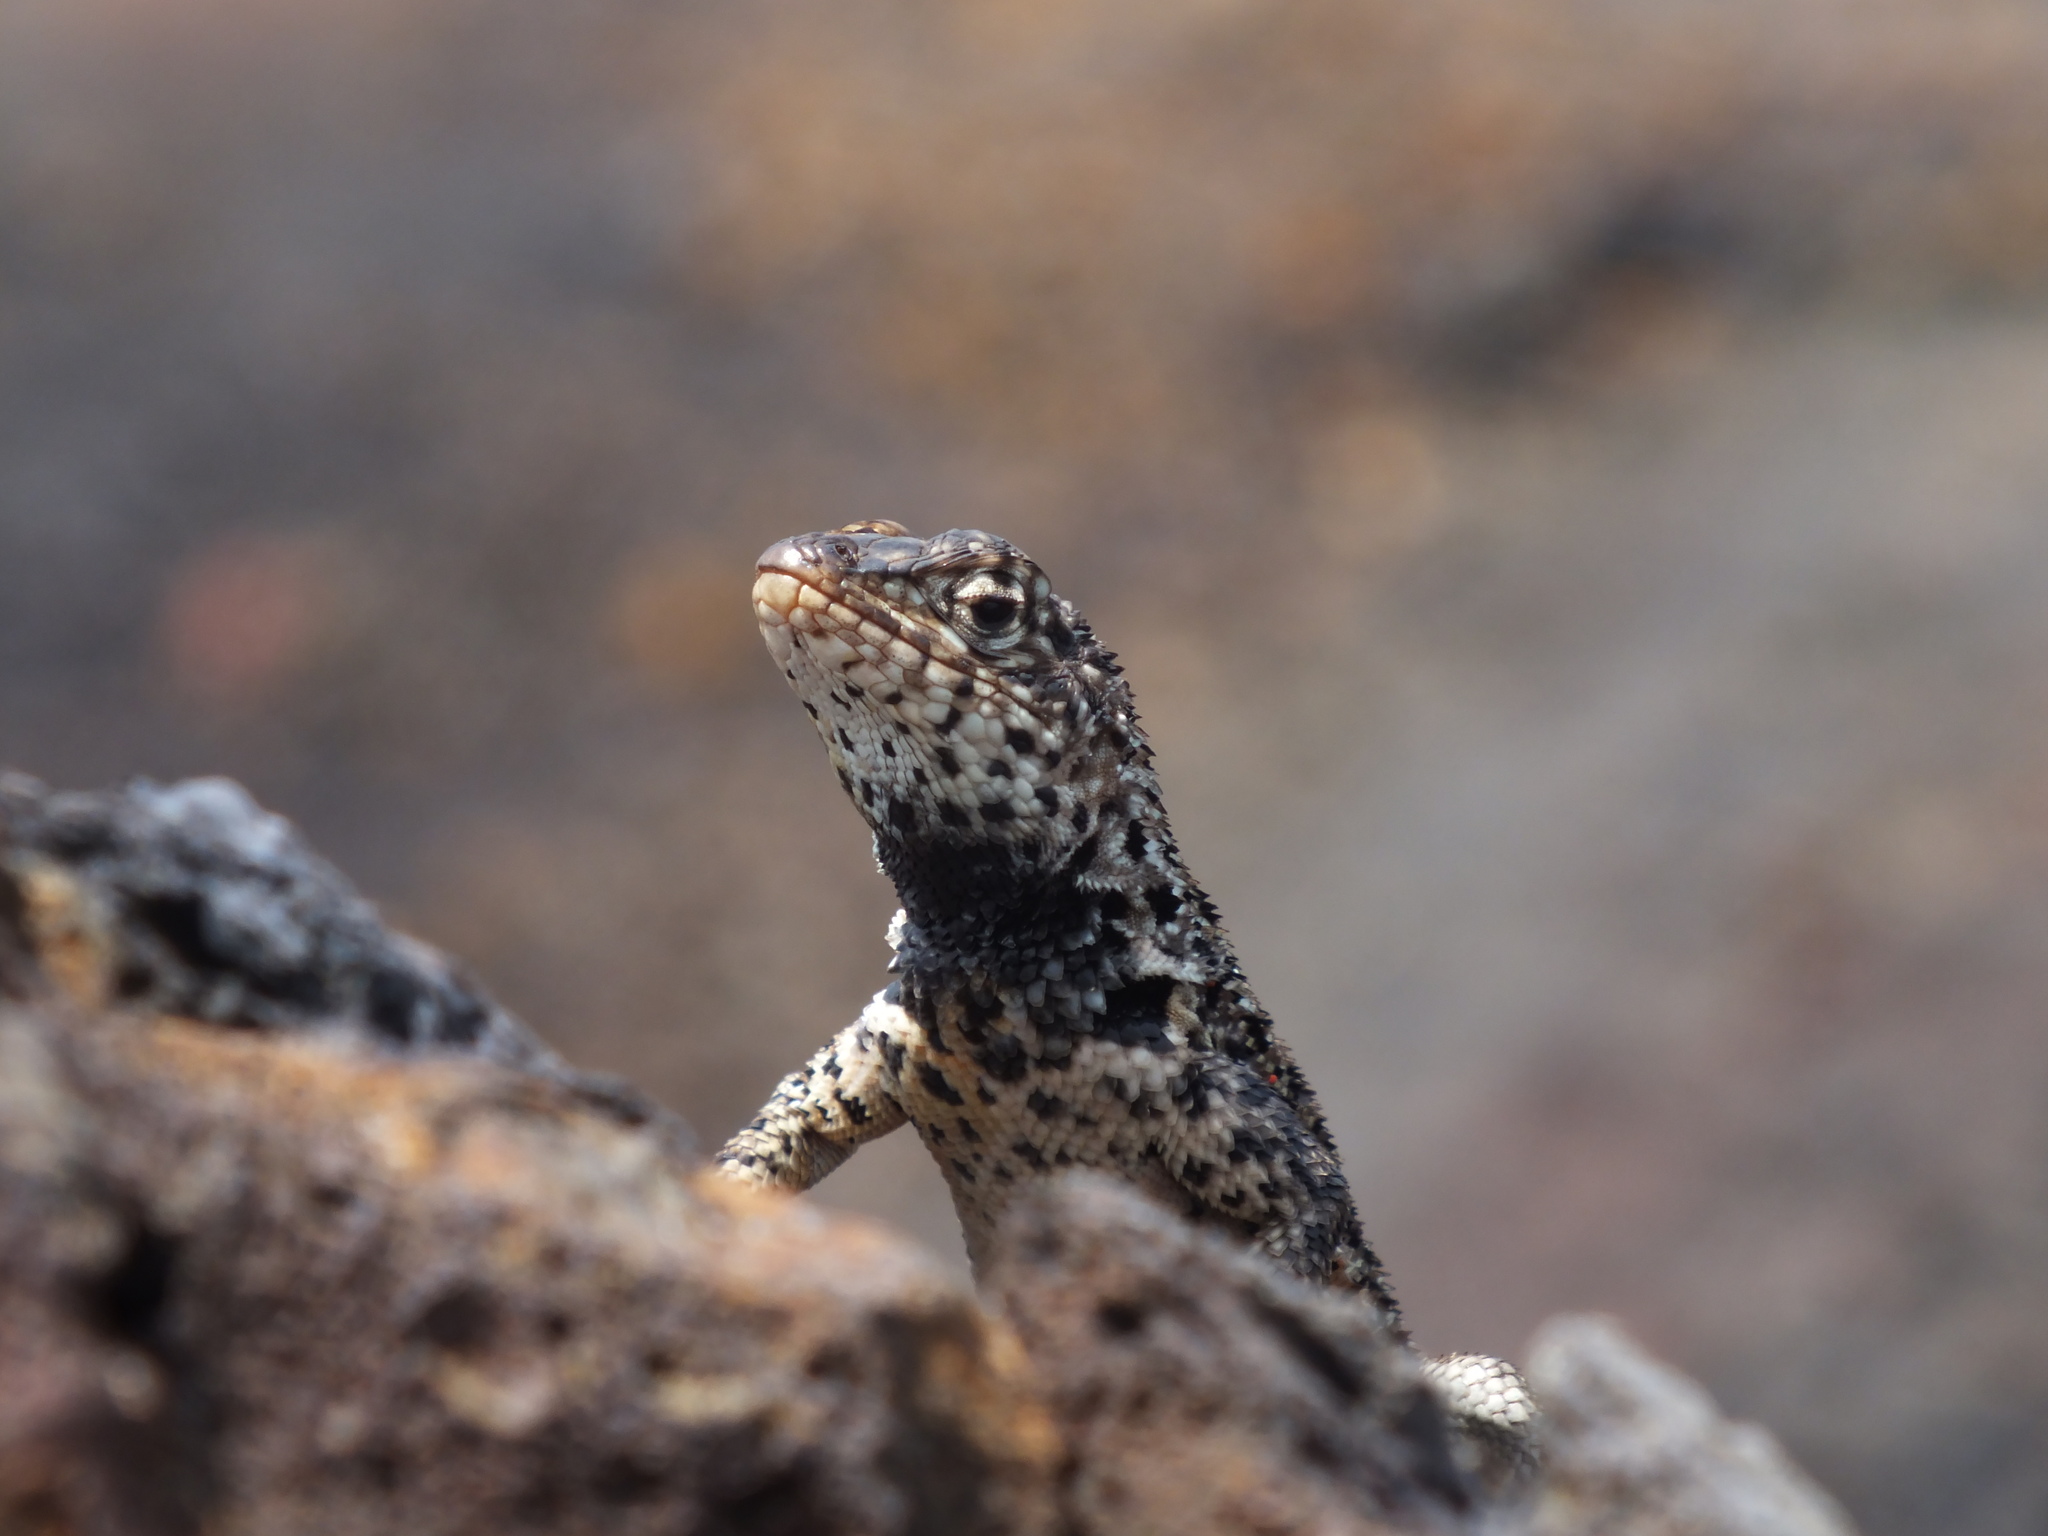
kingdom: Animalia
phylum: Chordata
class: Squamata
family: Tropiduridae
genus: Microlophus
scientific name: Microlophus albemarlensis
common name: Galapagos lava lizard
